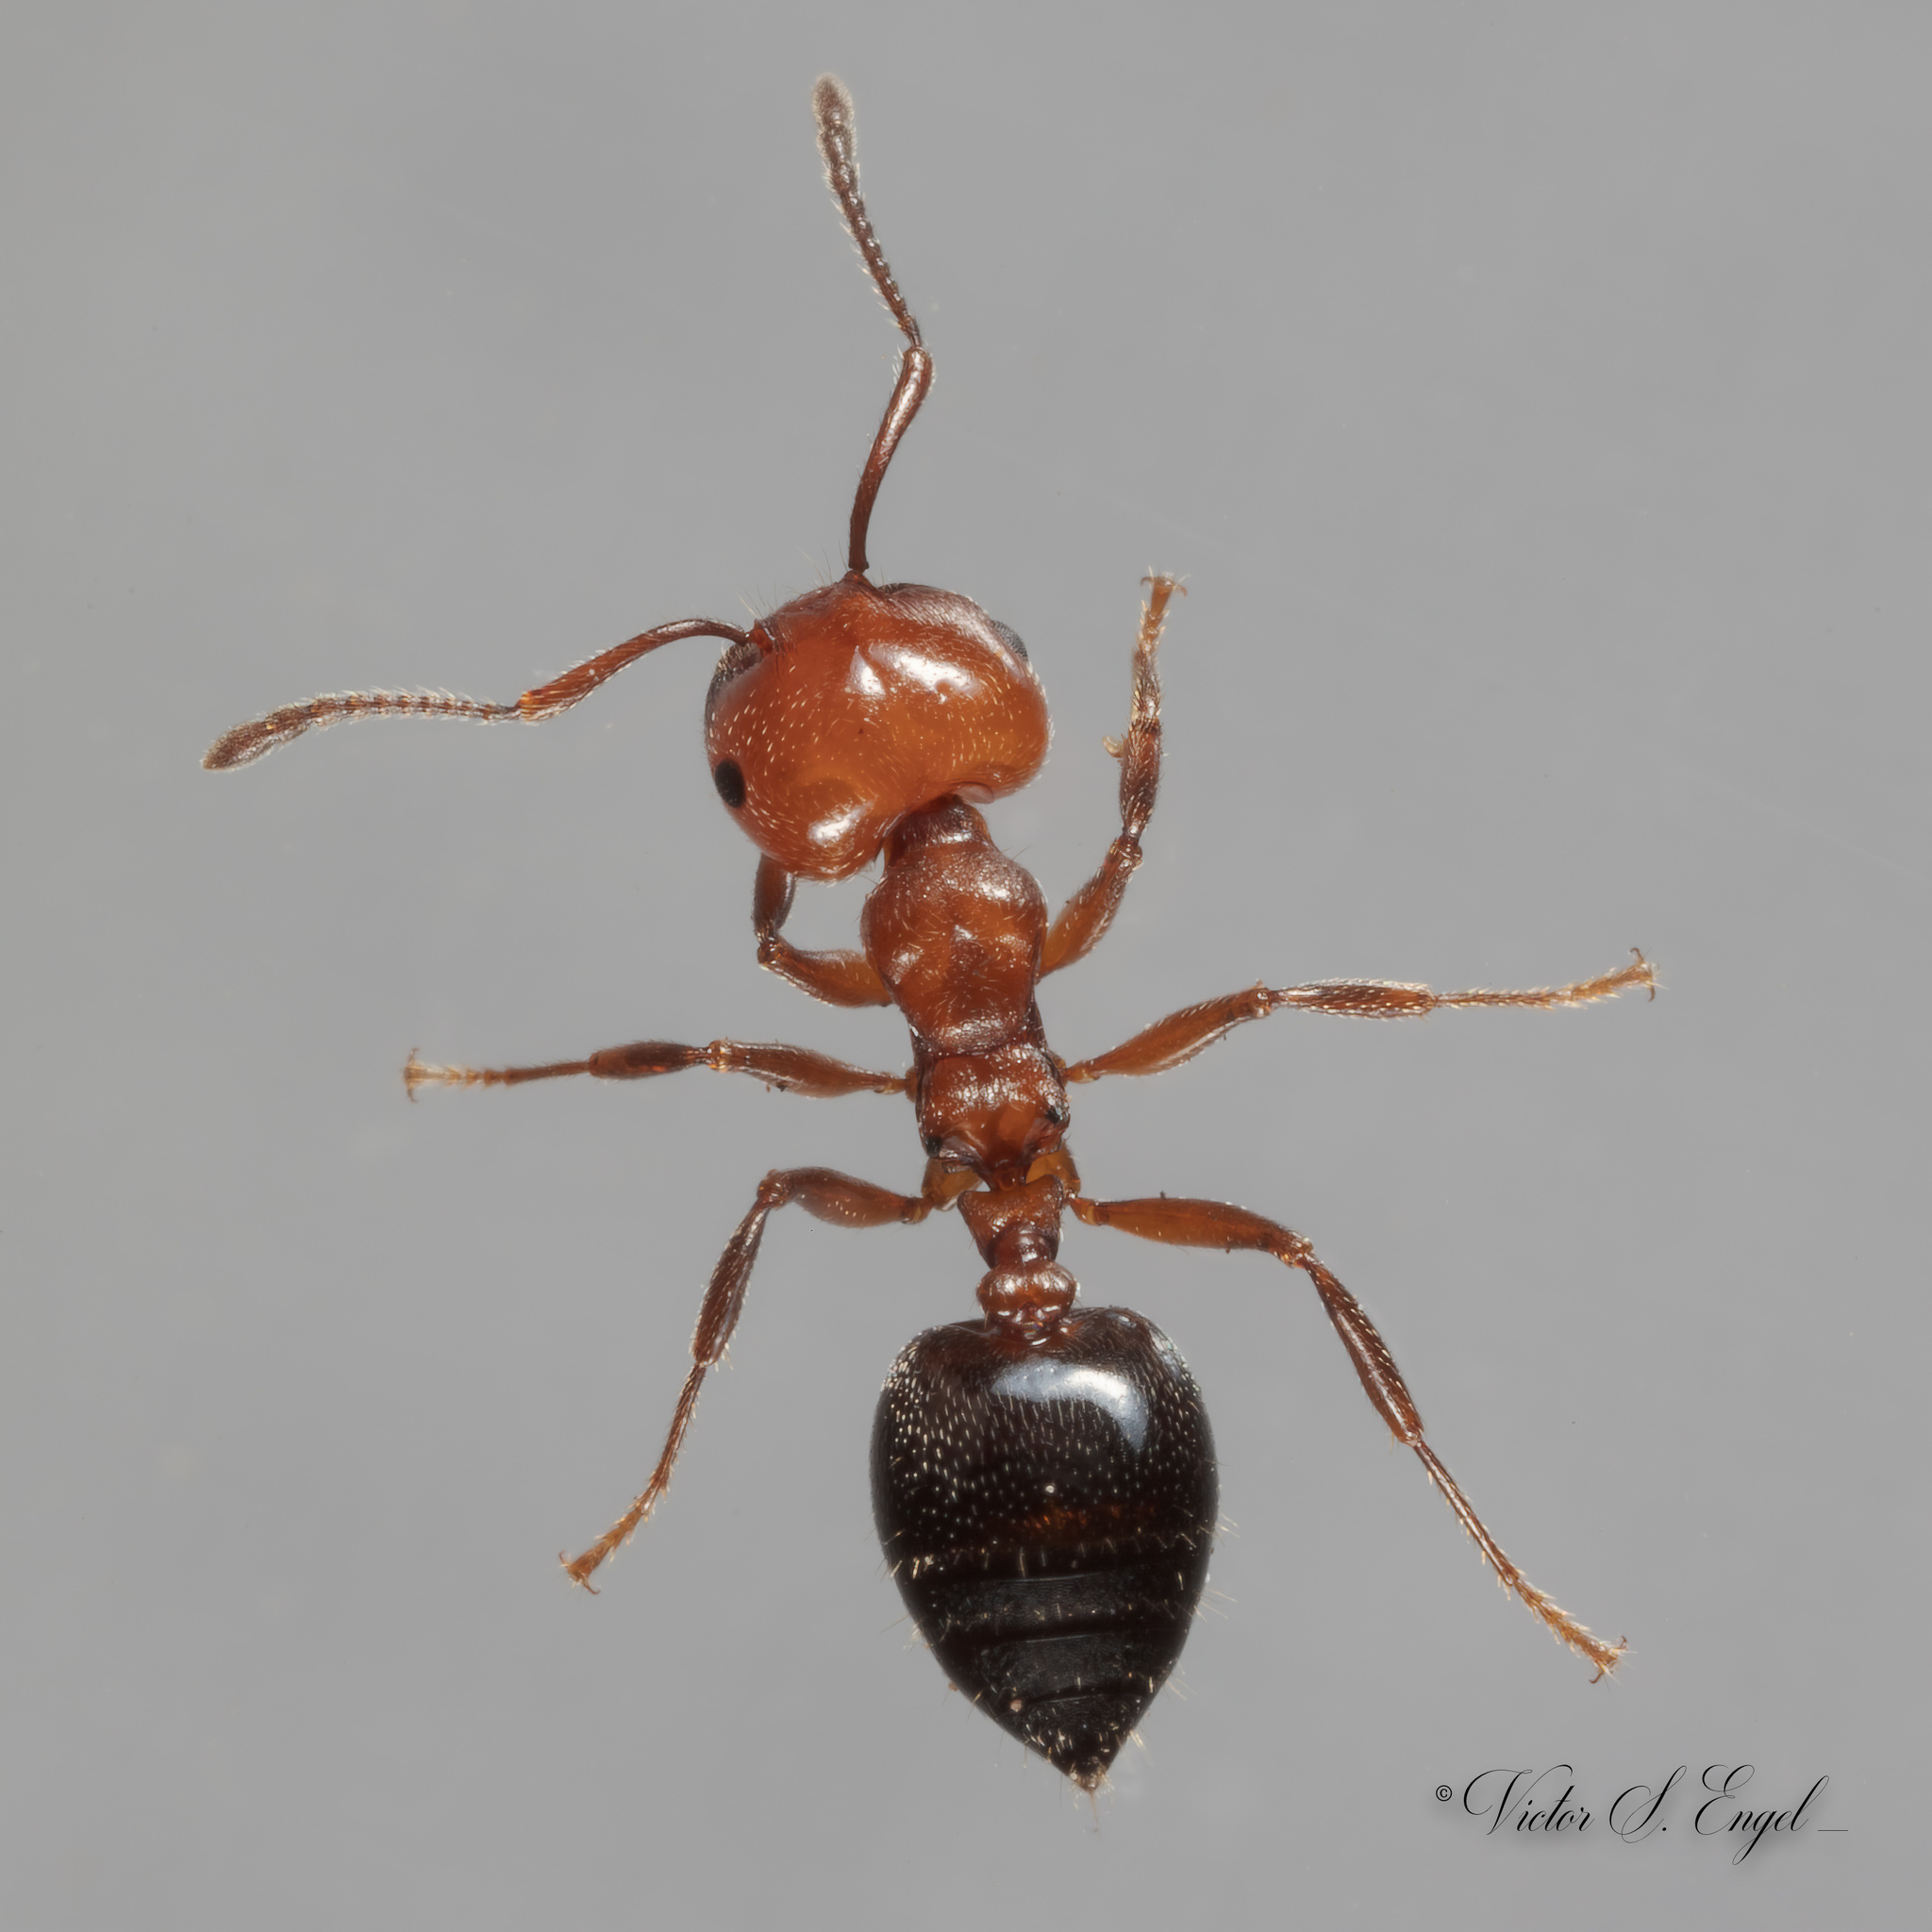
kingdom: Animalia
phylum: Arthropoda
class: Insecta
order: Hymenoptera
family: Formicidae
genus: Crematogaster
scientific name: Crematogaster laeviuscula
